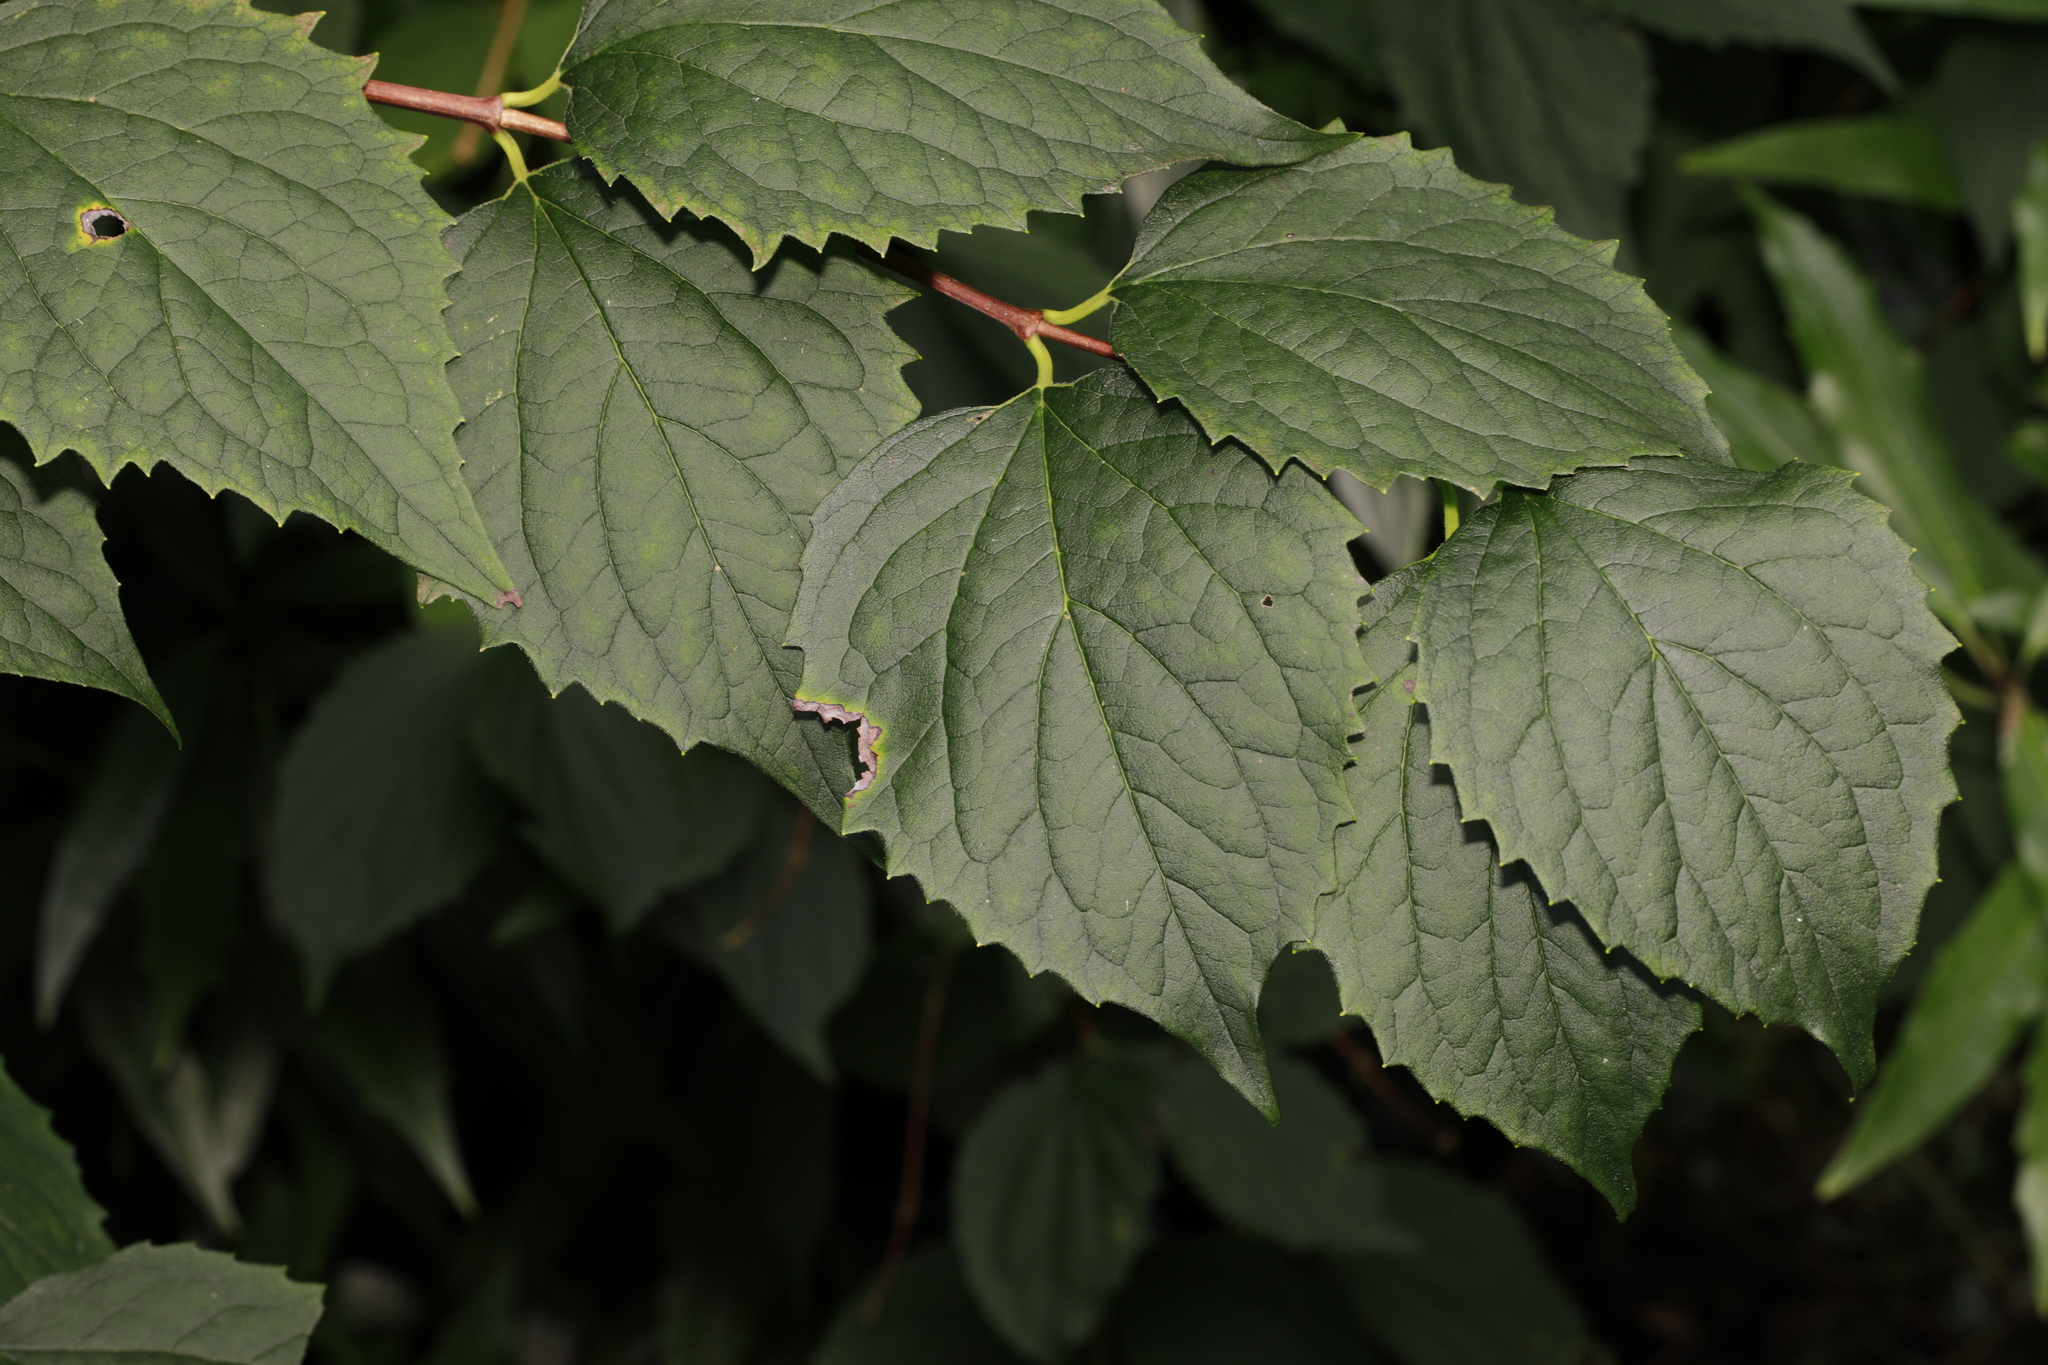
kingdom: Plantae
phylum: Tracheophyta
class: Magnoliopsida
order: Cornales
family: Hydrangeaceae
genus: Philadelphus
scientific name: Philadelphus coronarius
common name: Mock orange
